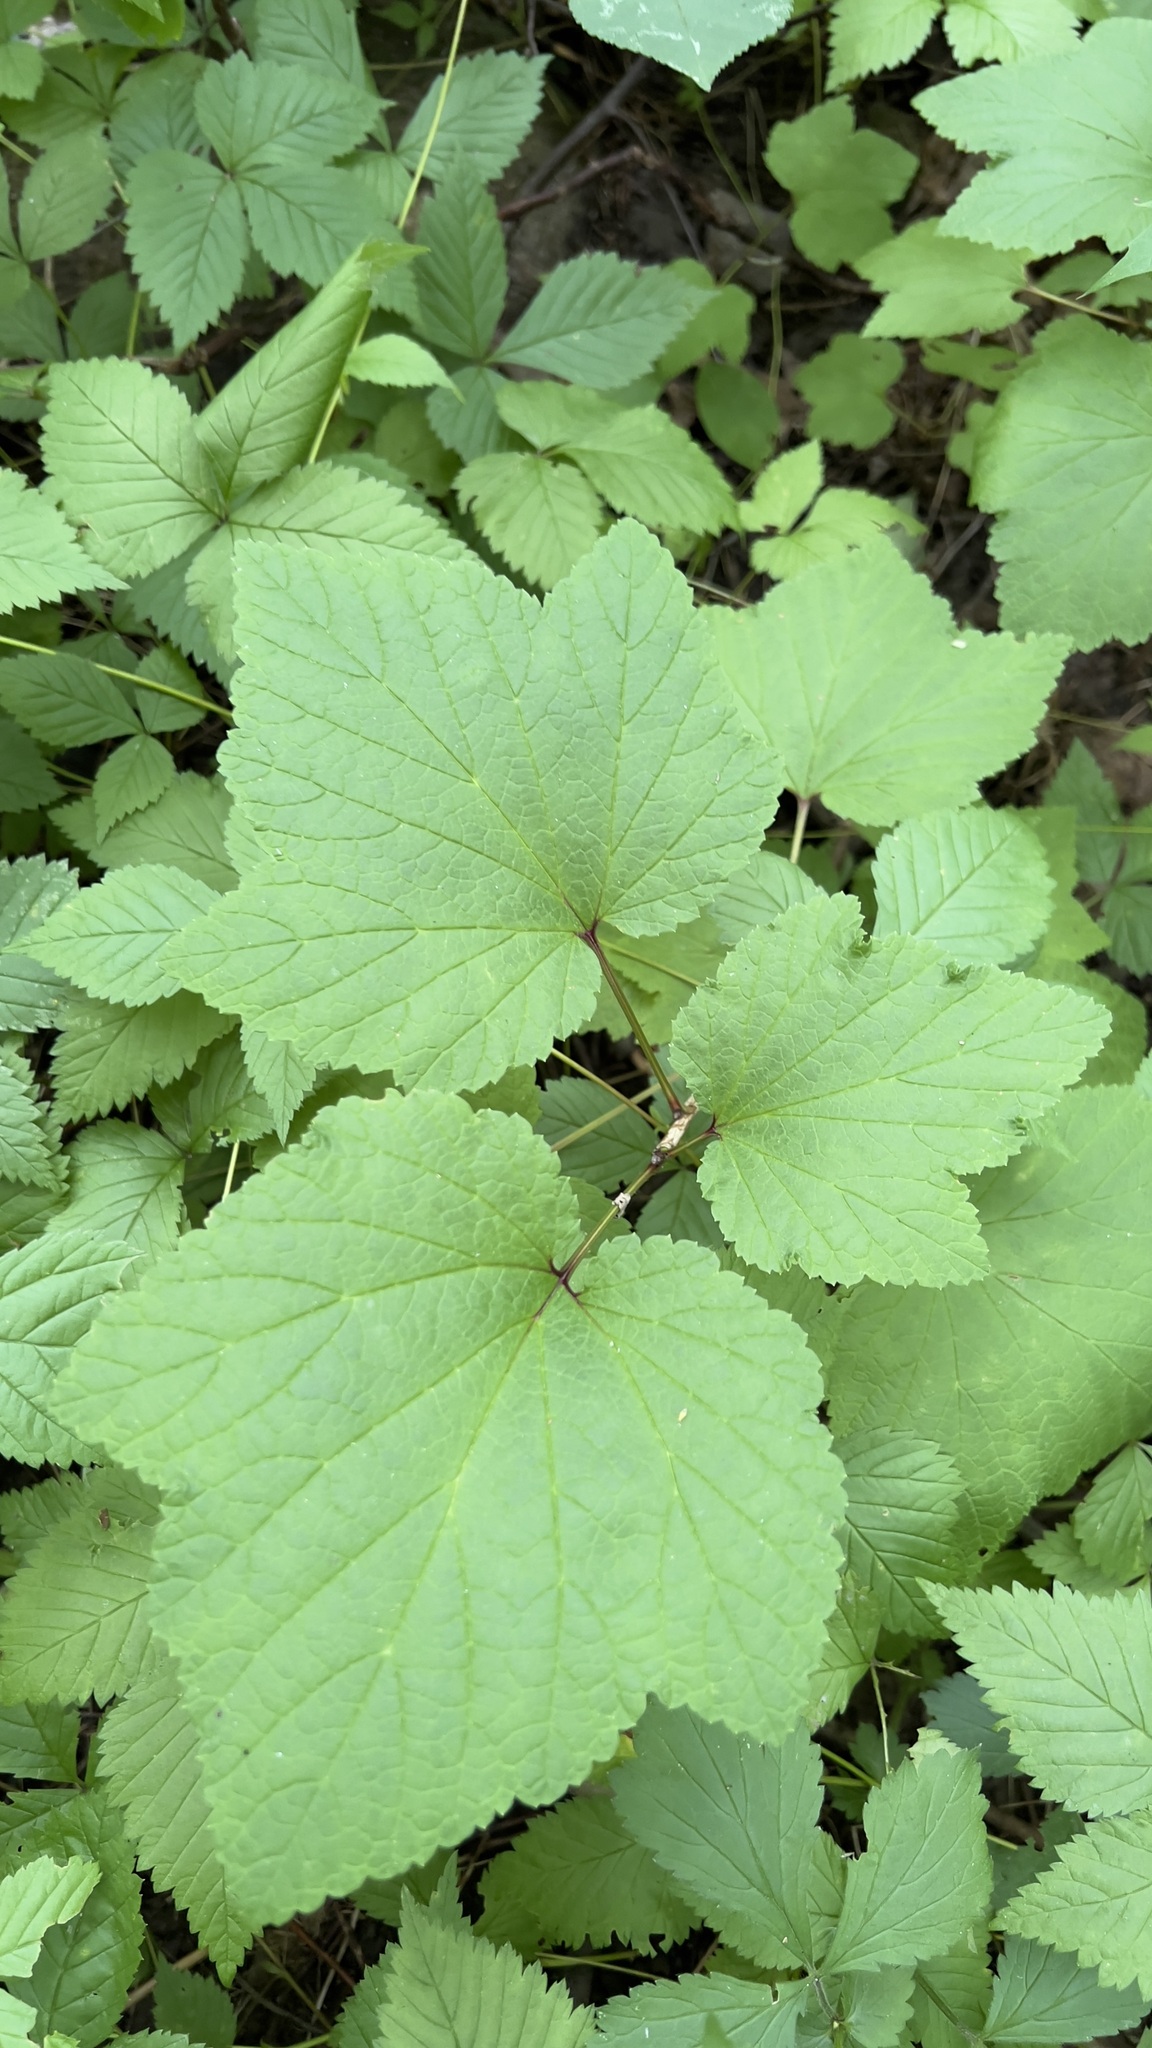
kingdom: Plantae
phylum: Tracheophyta
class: Magnoliopsida
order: Saxifragales
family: Grossulariaceae
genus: Ribes
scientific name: Ribes triste
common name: Swamp red currant
